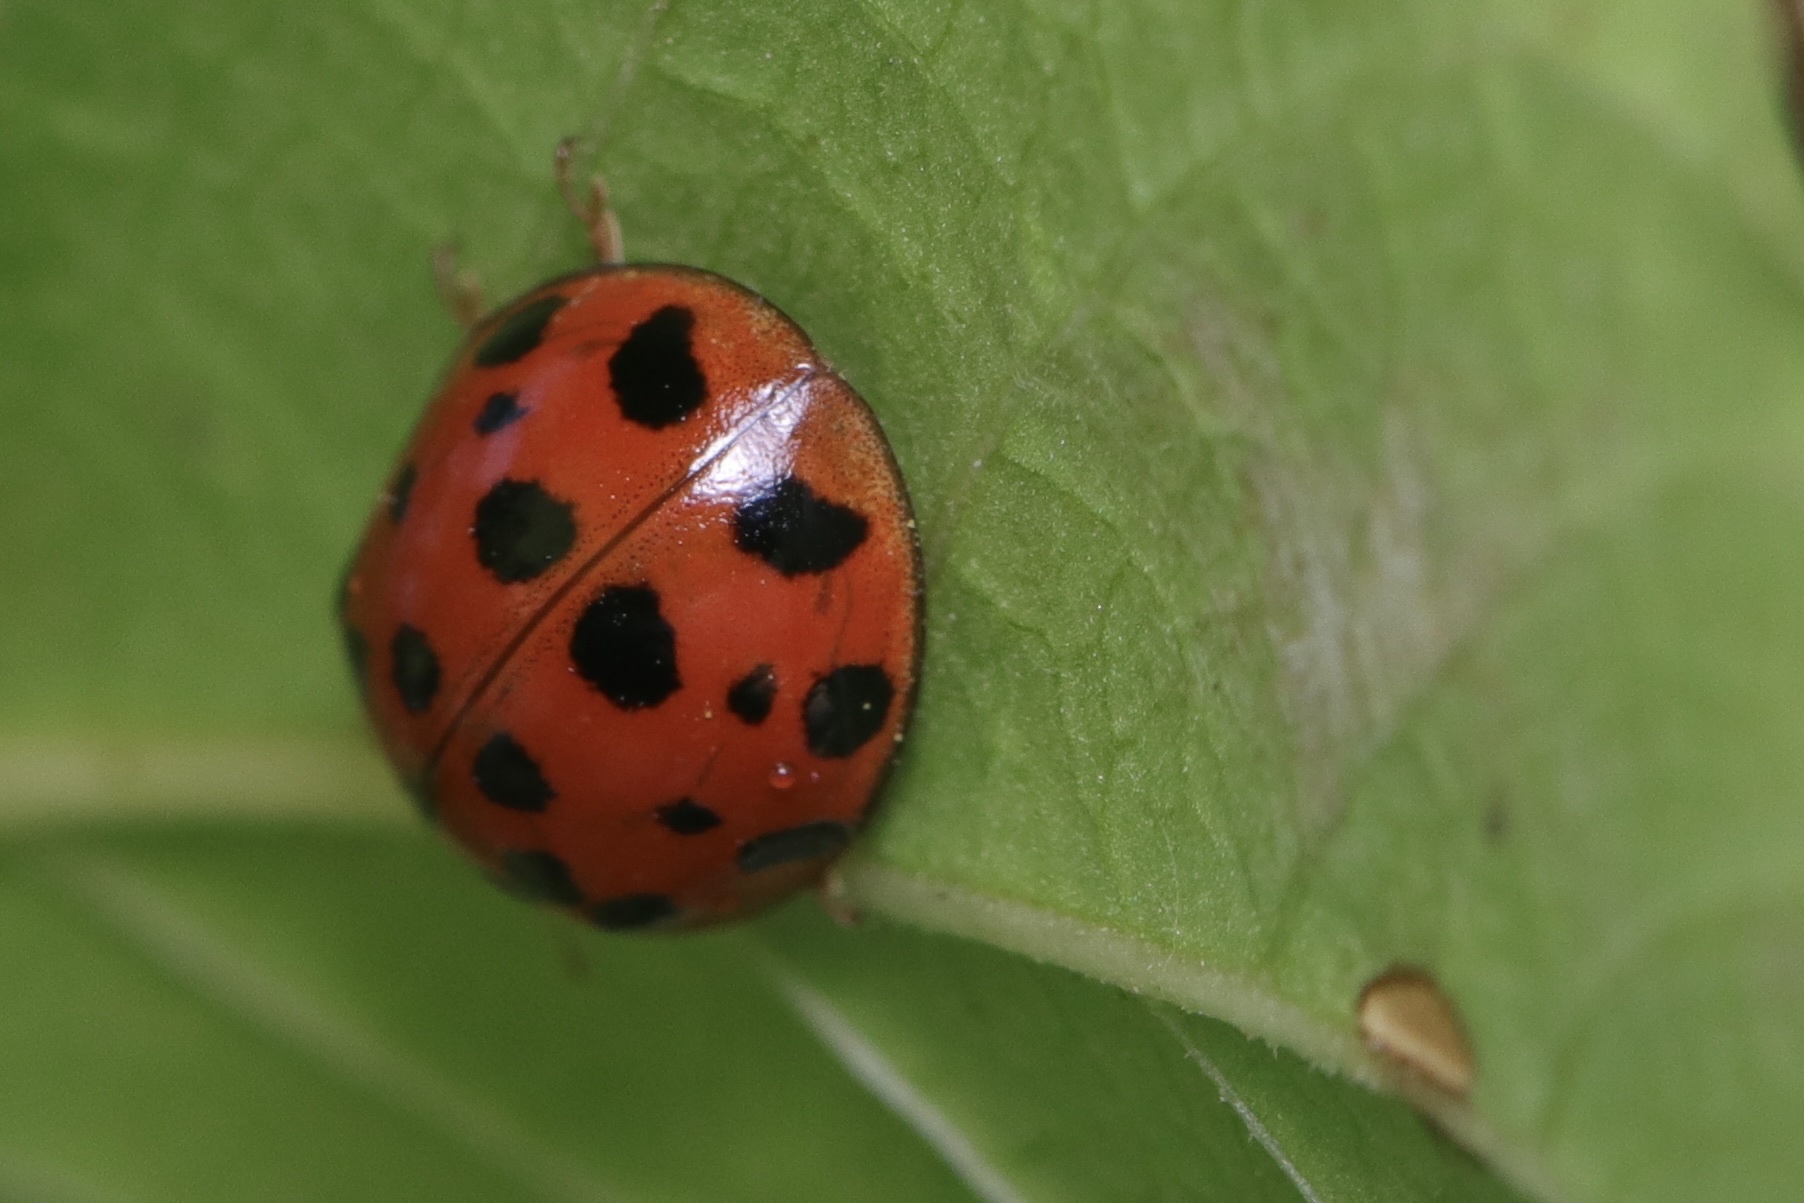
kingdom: Animalia
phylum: Arthropoda
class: Insecta
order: Coleoptera
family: Coccinellidae
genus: Harmonia
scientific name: Harmonia axyridis
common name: Harlequin ladybird
